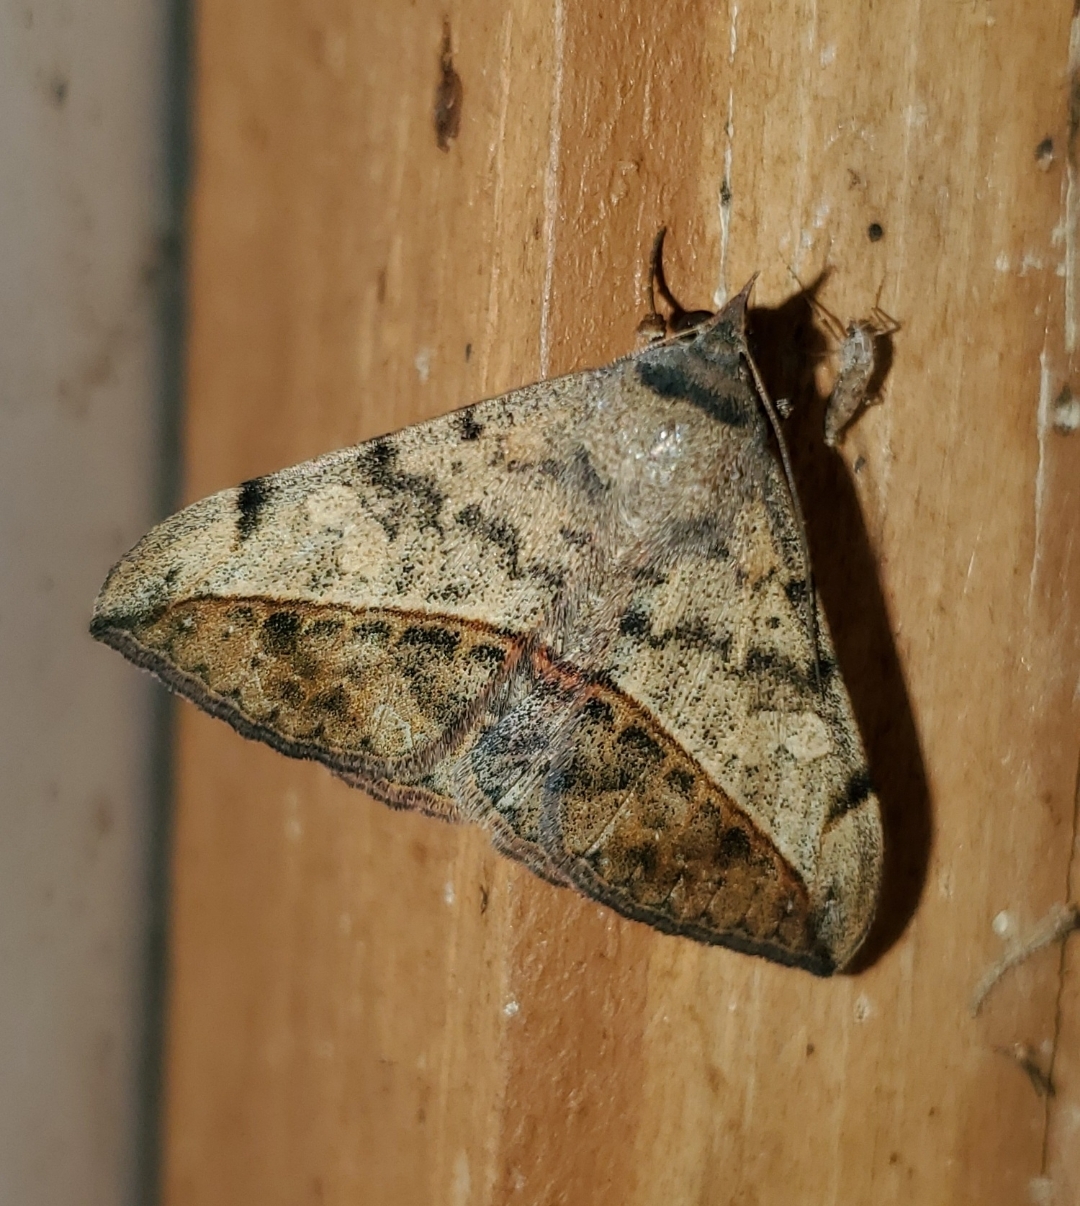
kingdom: Animalia
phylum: Arthropoda
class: Insecta
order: Lepidoptera
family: Erebidae
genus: Anticarsia
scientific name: Anticarsia gemmatalis
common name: Cutworm moth
